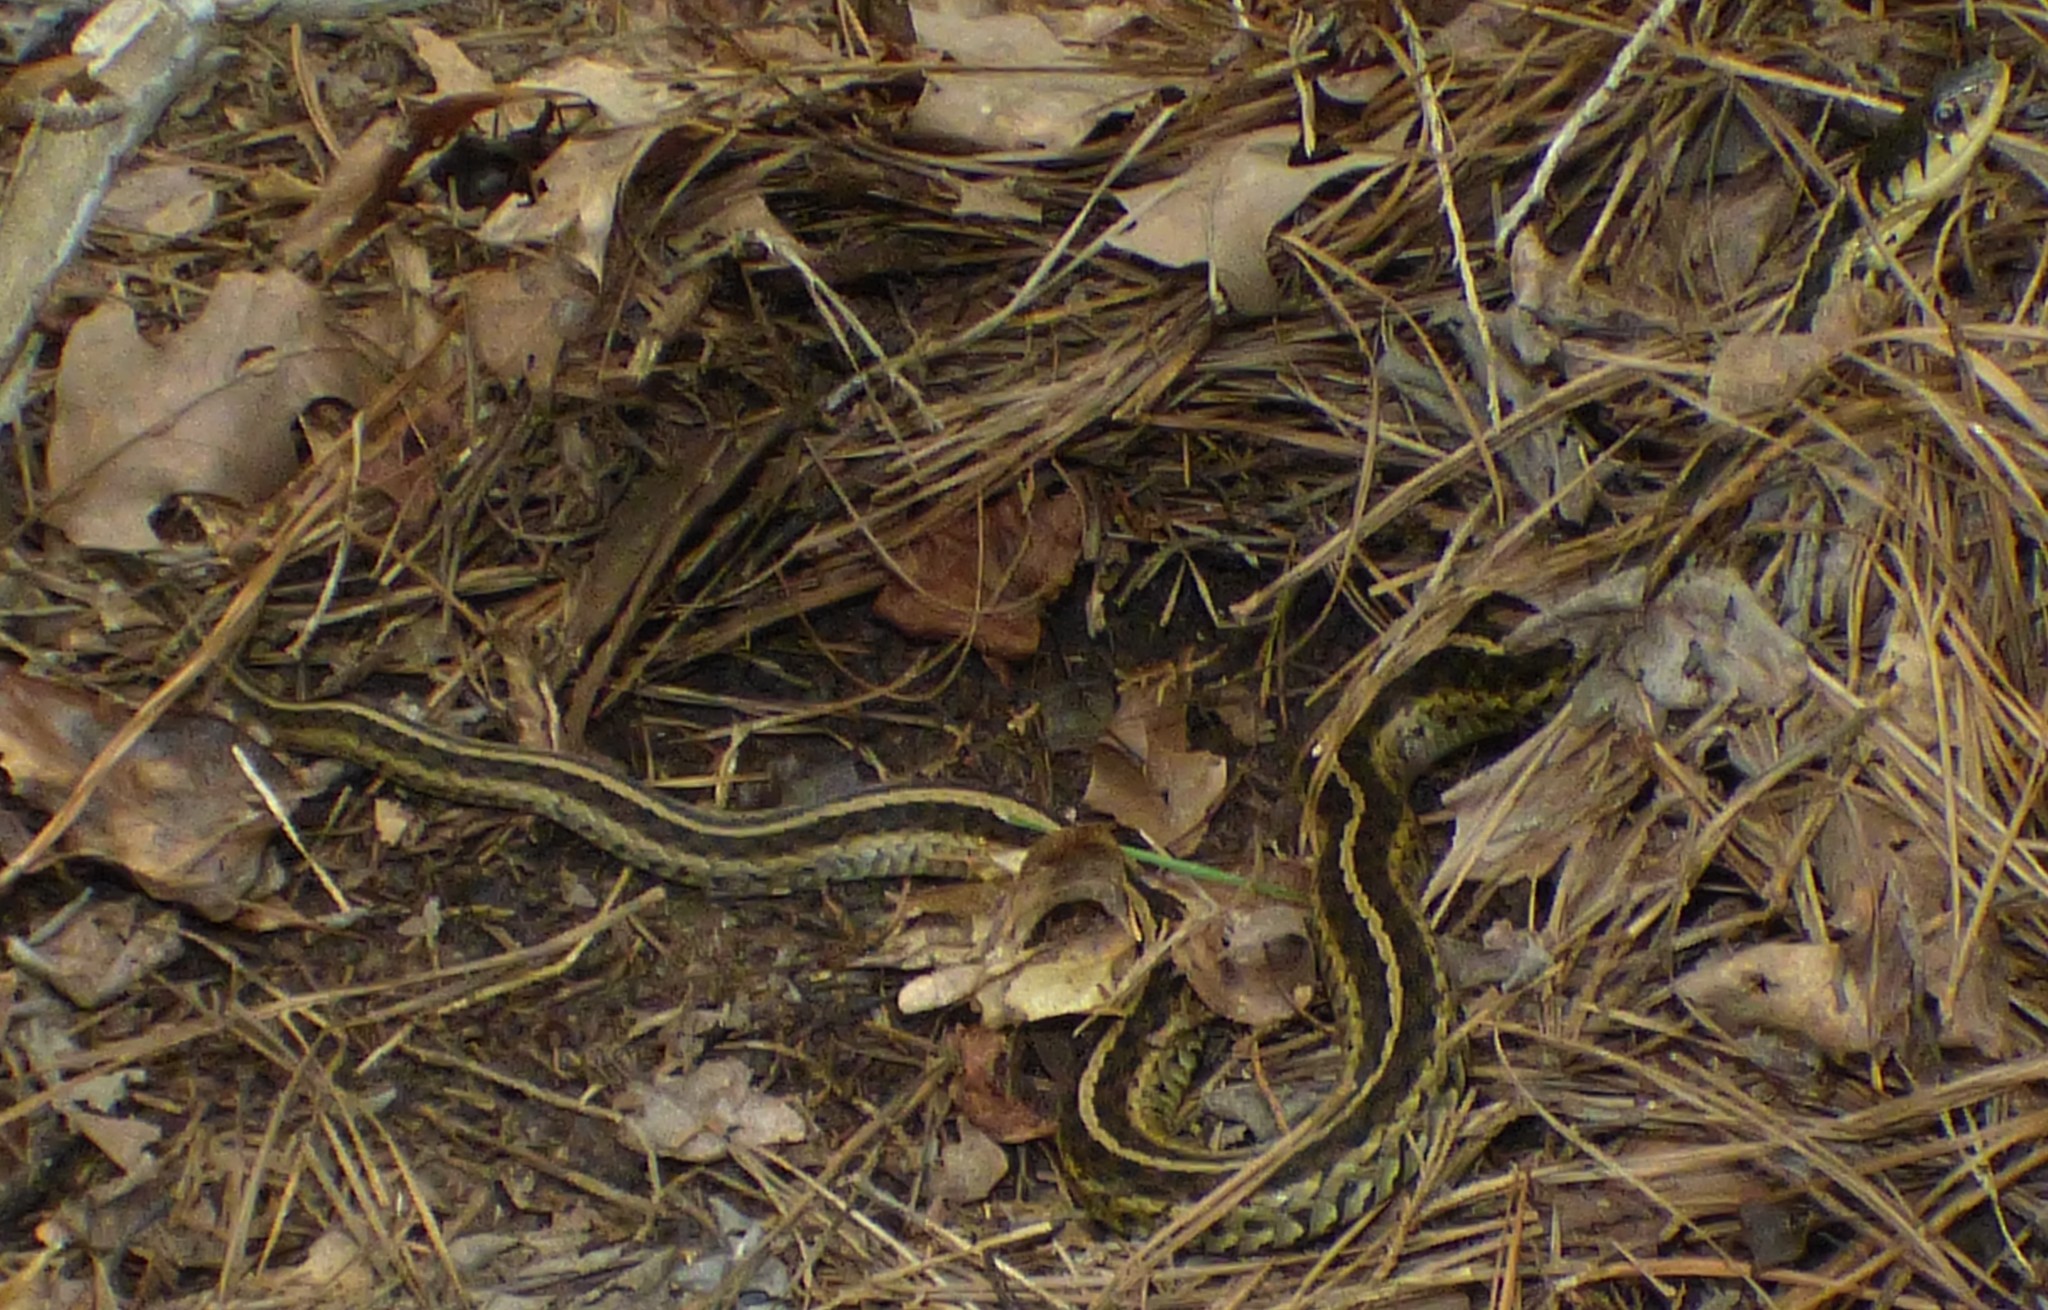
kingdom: Animalia
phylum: Chordata
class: Squamata
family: Colubridae
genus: Thamnophis
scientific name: Thamnophis sirtalis
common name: Common garter snake
